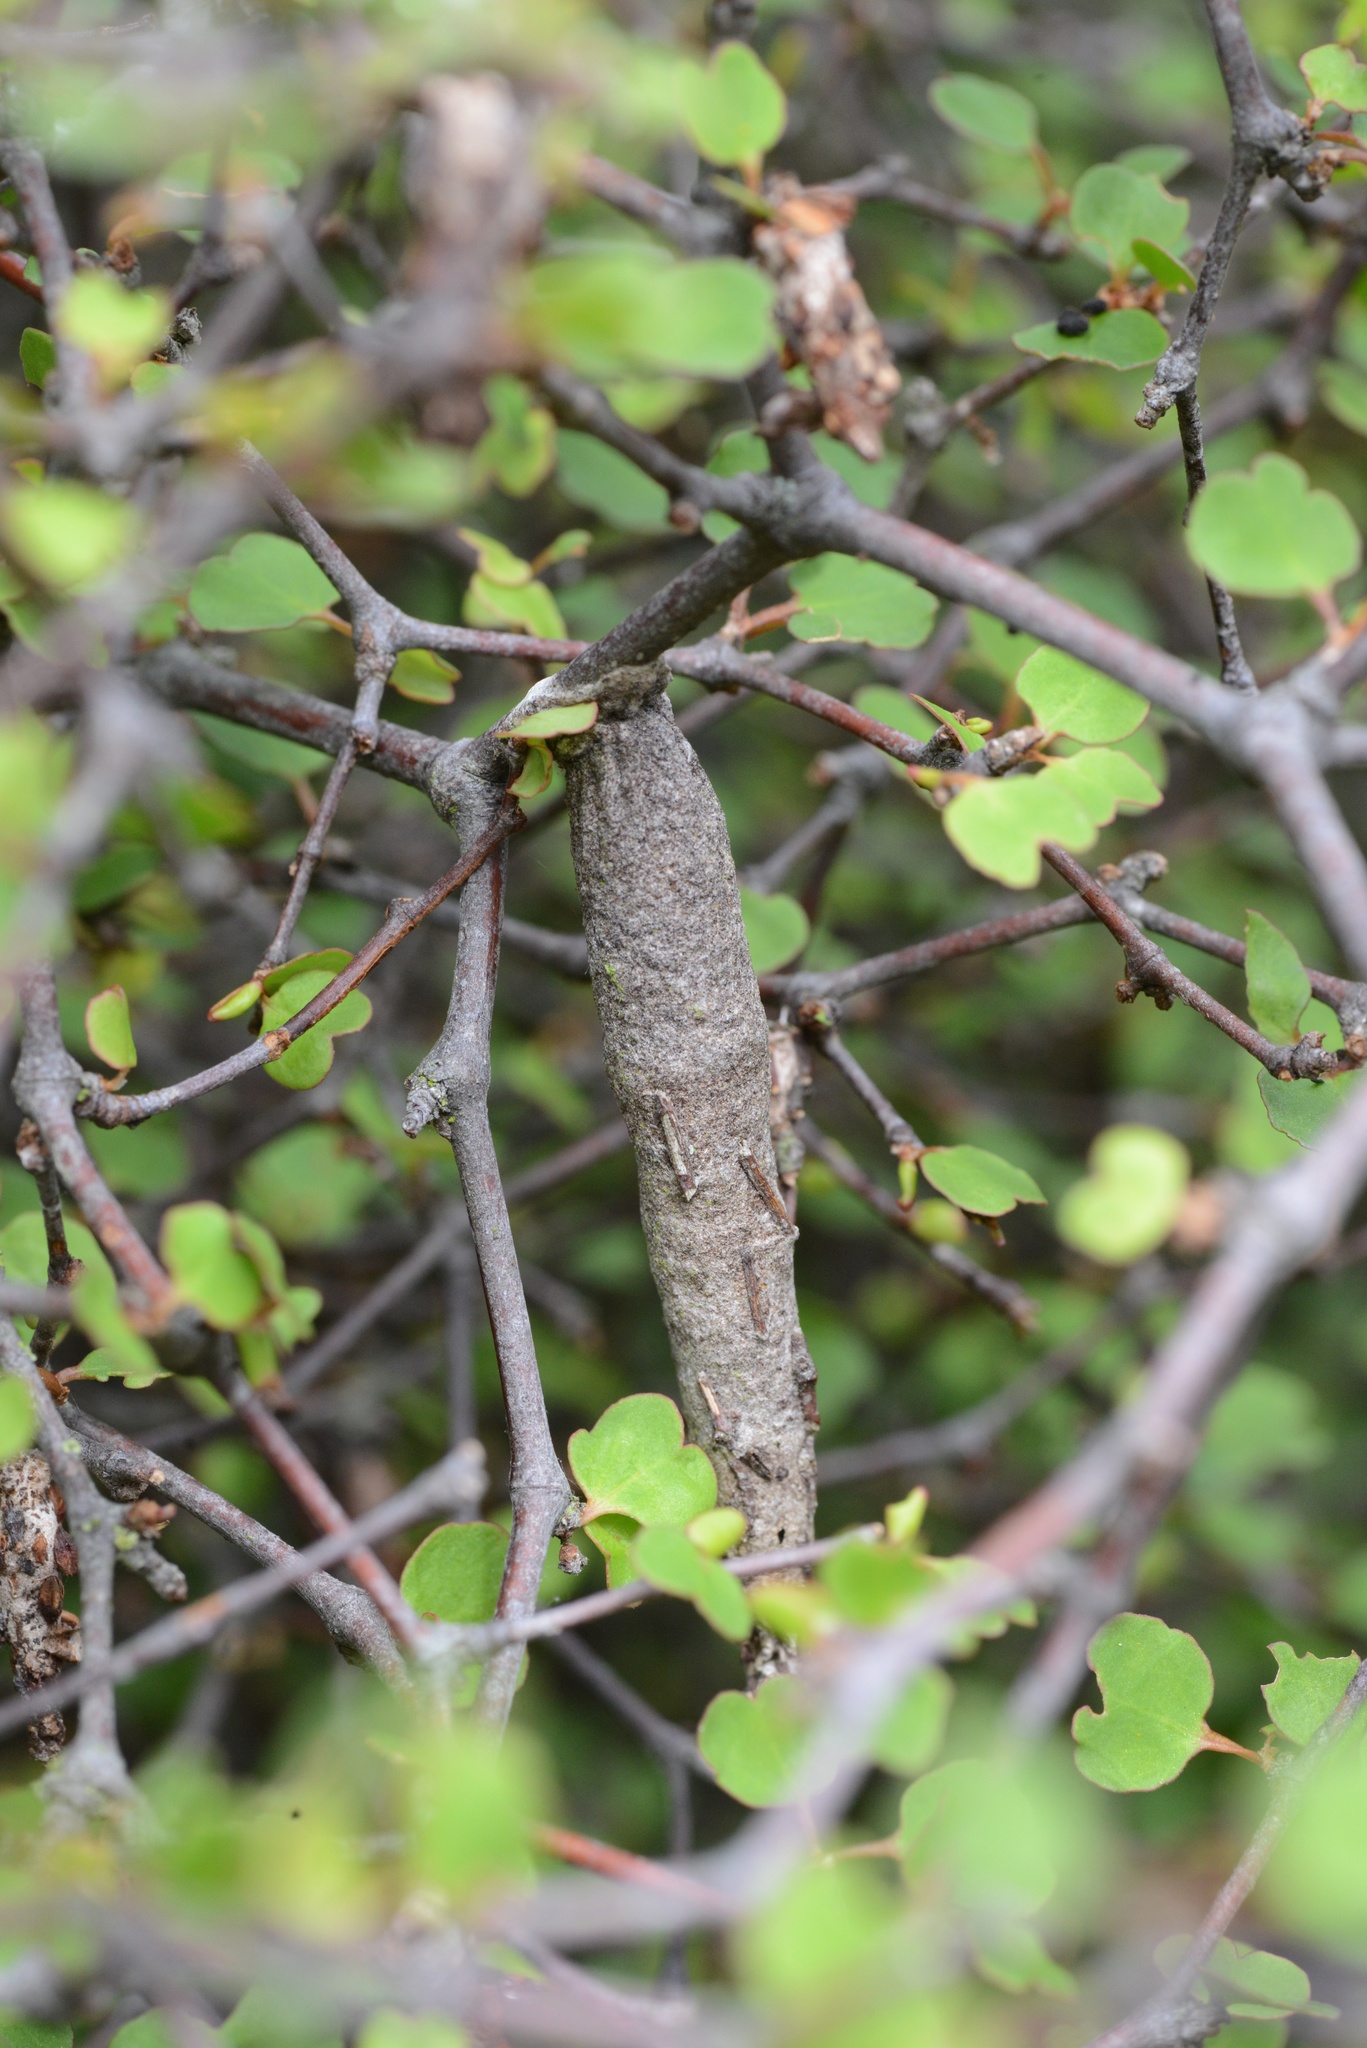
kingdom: Animalia
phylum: Arthropoda
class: Insecta
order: Lepidoptera
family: Psychidae
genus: Liothula
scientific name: Liothula omnivora
